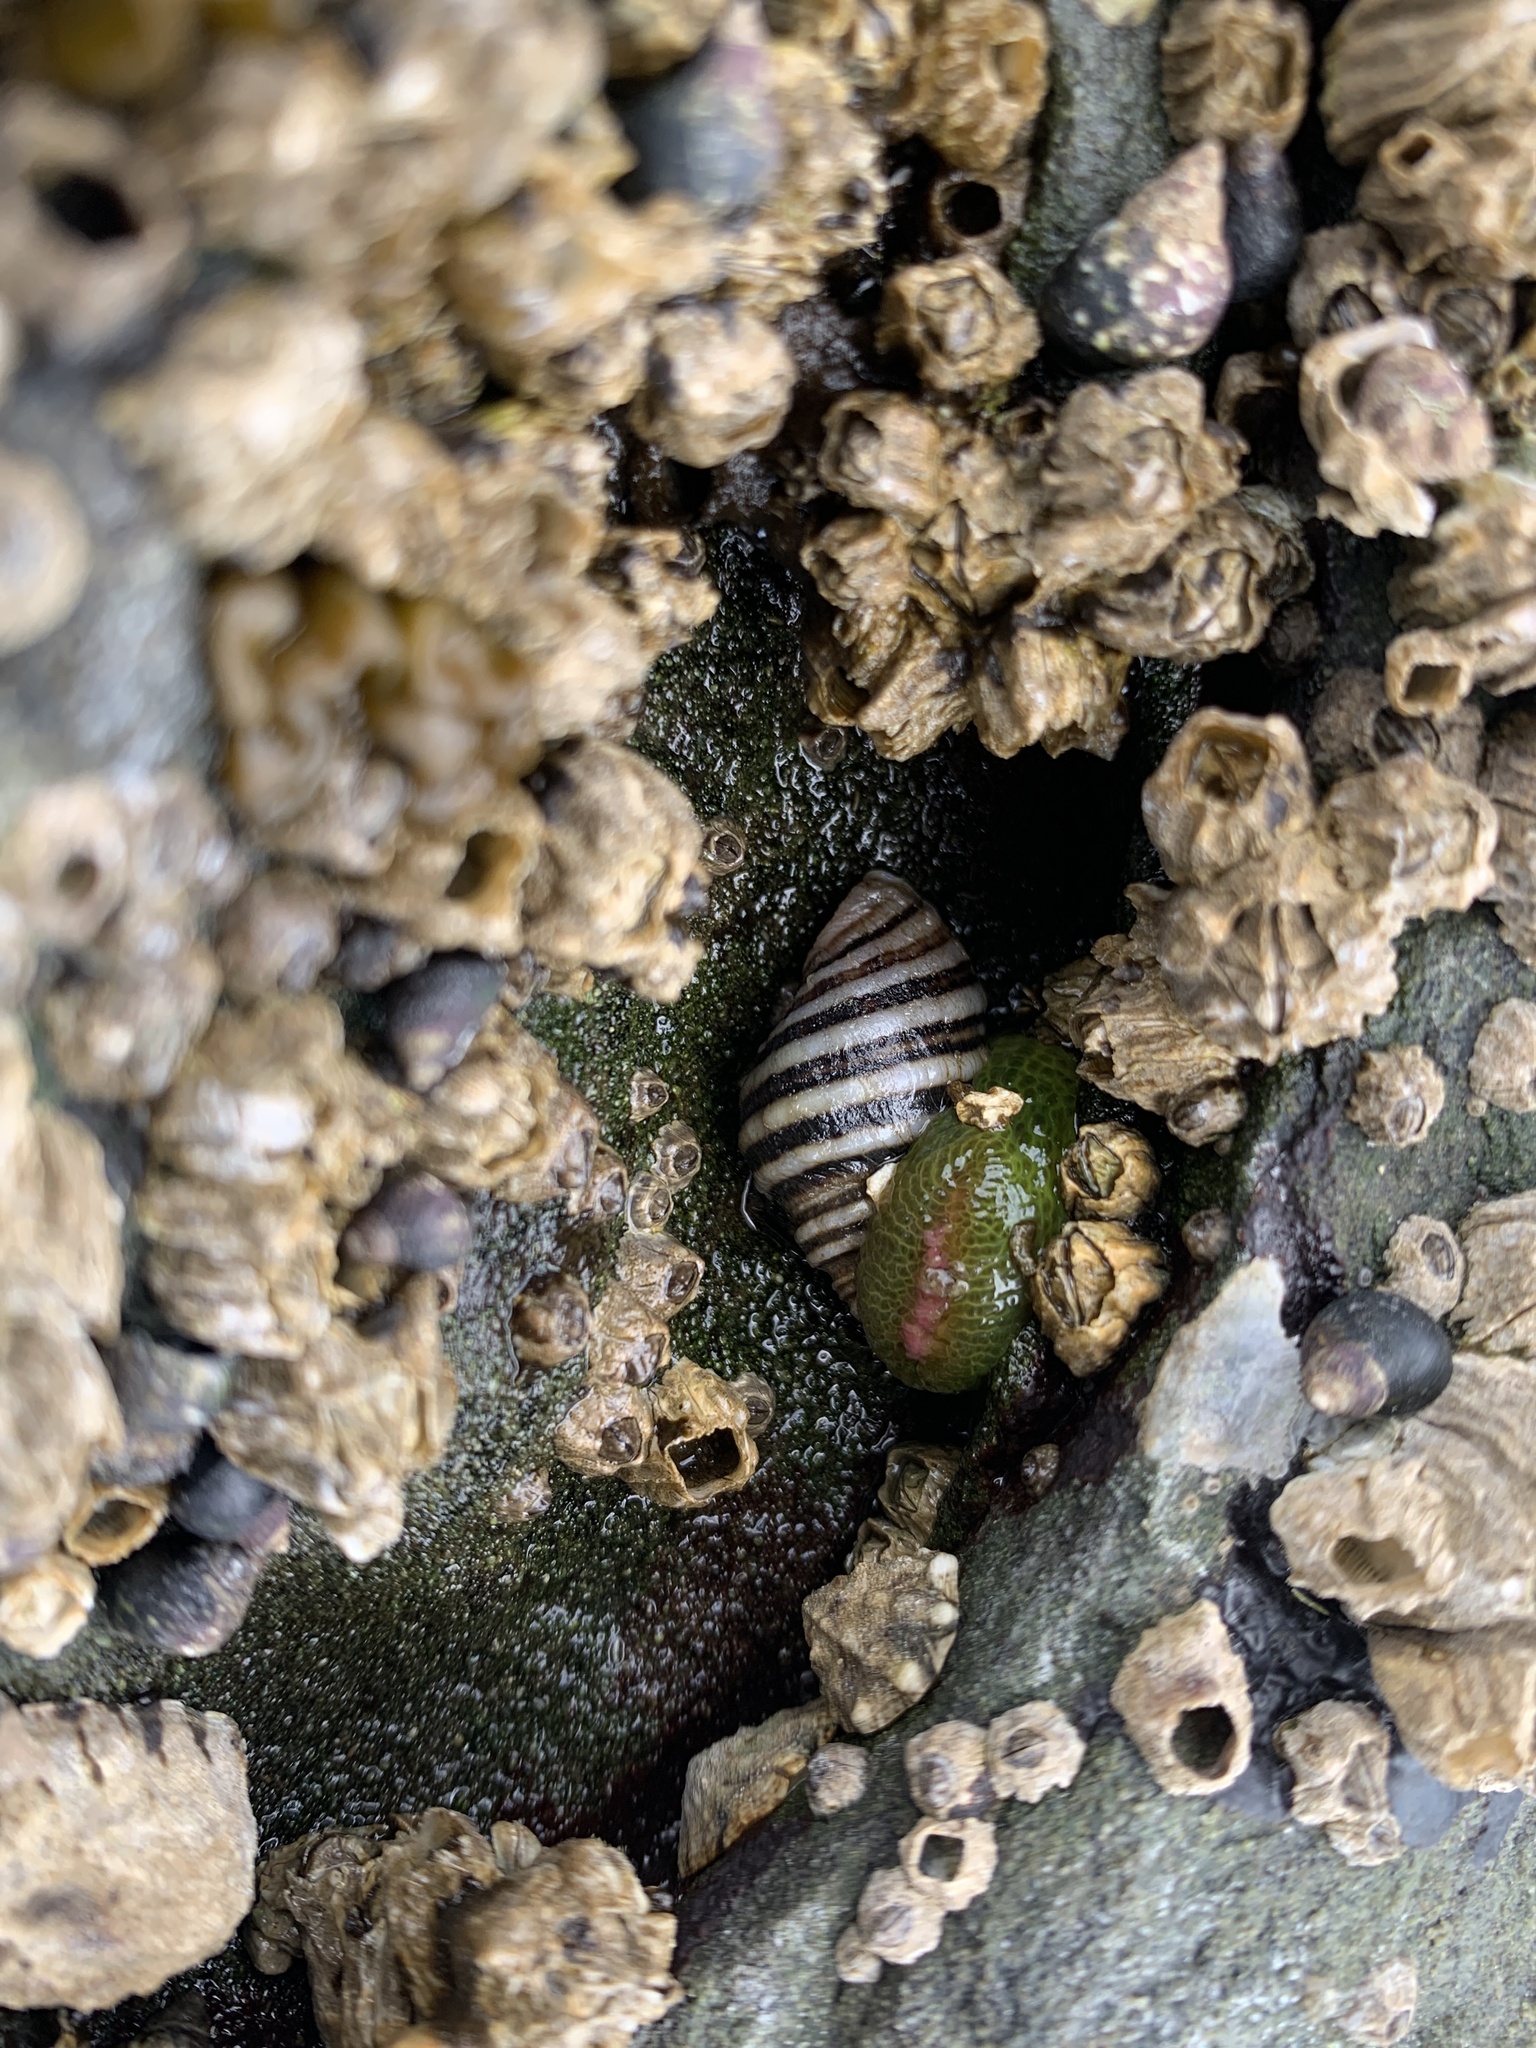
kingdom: Animalia
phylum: Mollusca
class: Gastropoda
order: Neogastropoda
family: Muricidae
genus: Nucella
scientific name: Nucella ostrina
